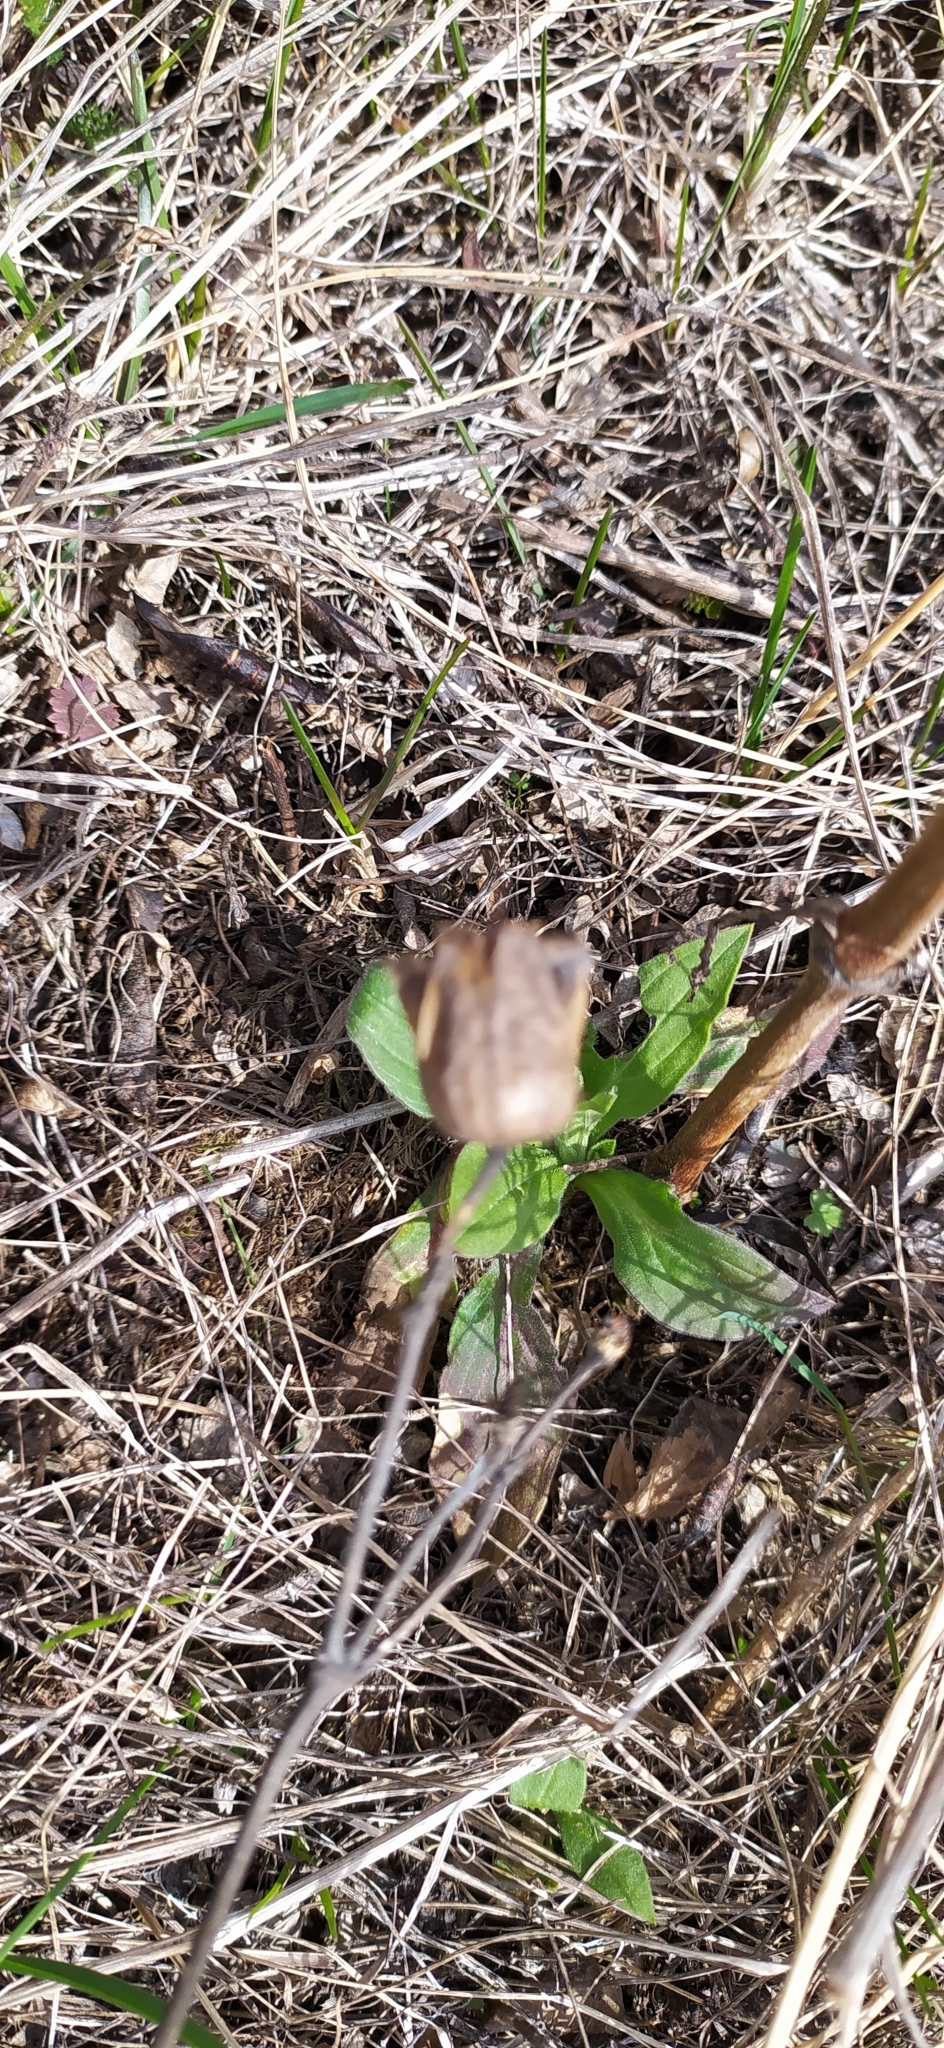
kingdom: Plantae
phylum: Tracheophyta
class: Magnoliopsida
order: Caryophyllales
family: Caryophyllaceae
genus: Silene
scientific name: Silene latifolia
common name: White campion
